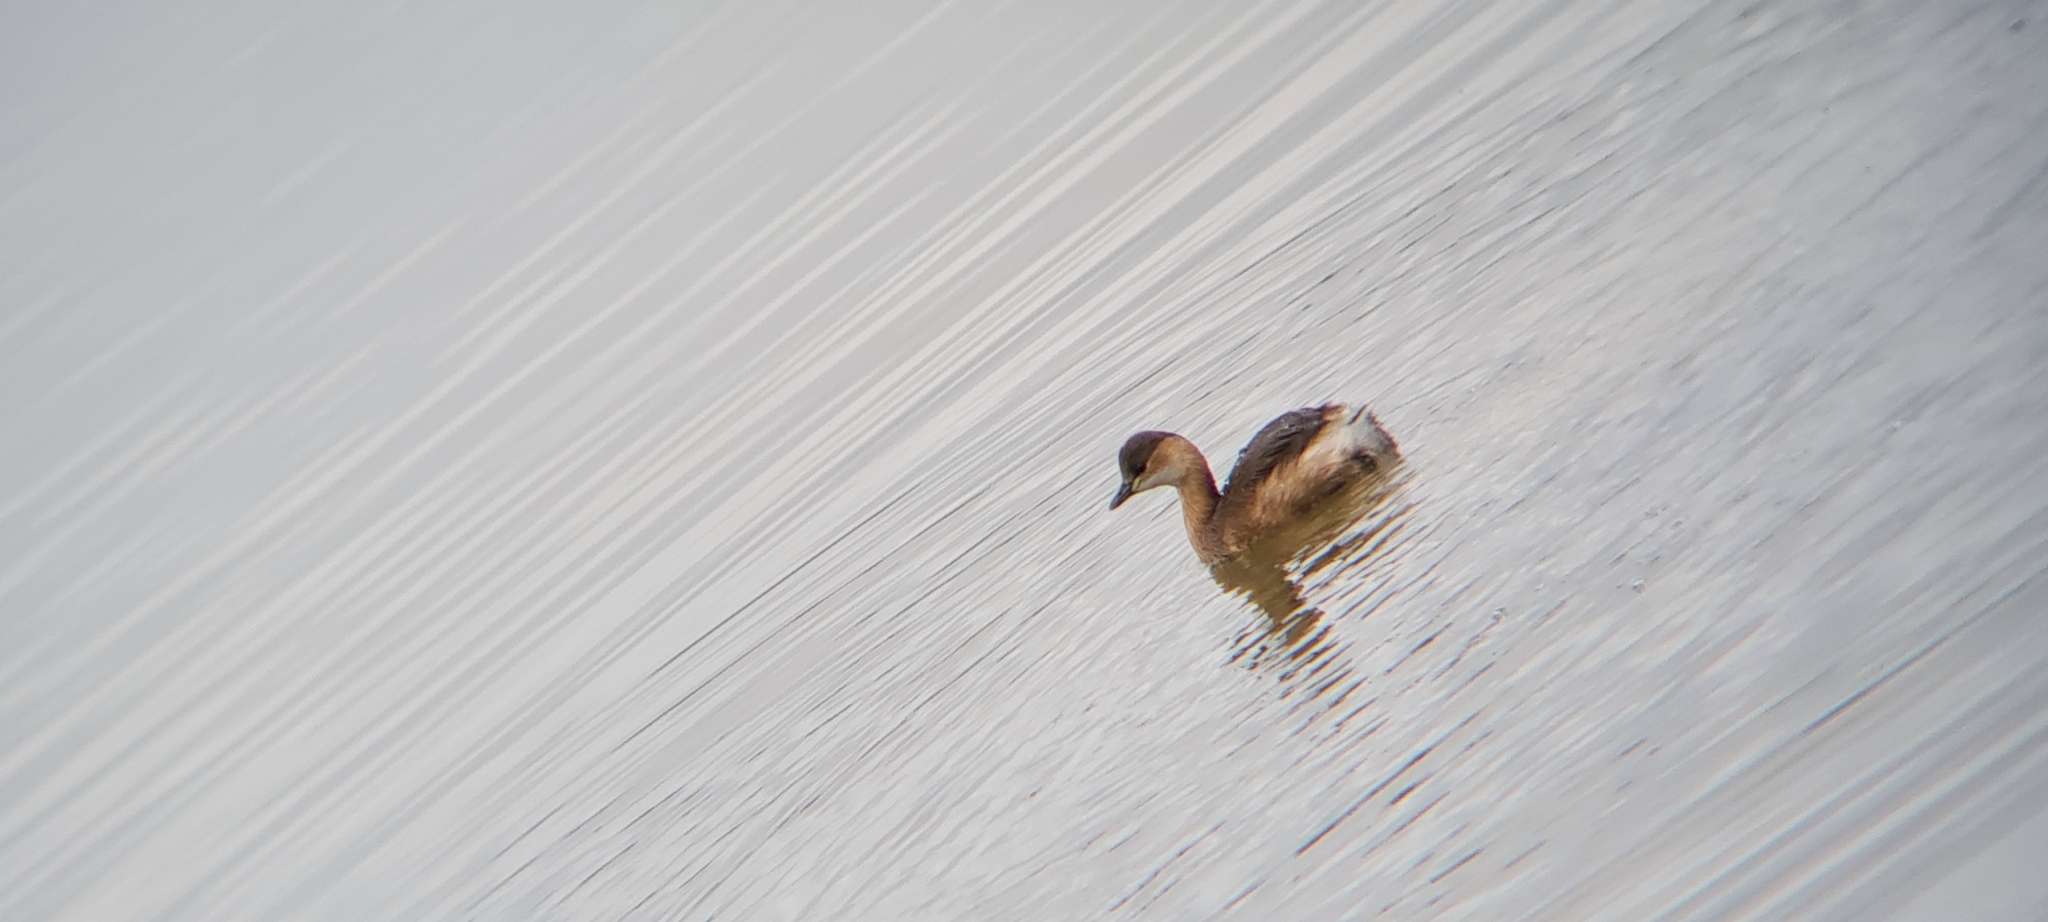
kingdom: Animalia
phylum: Chordata
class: Aves
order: Podicipediformes
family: Podicipedidae
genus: Tachybaptus
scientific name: Tachybaptus ruficollis
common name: Little grebe
